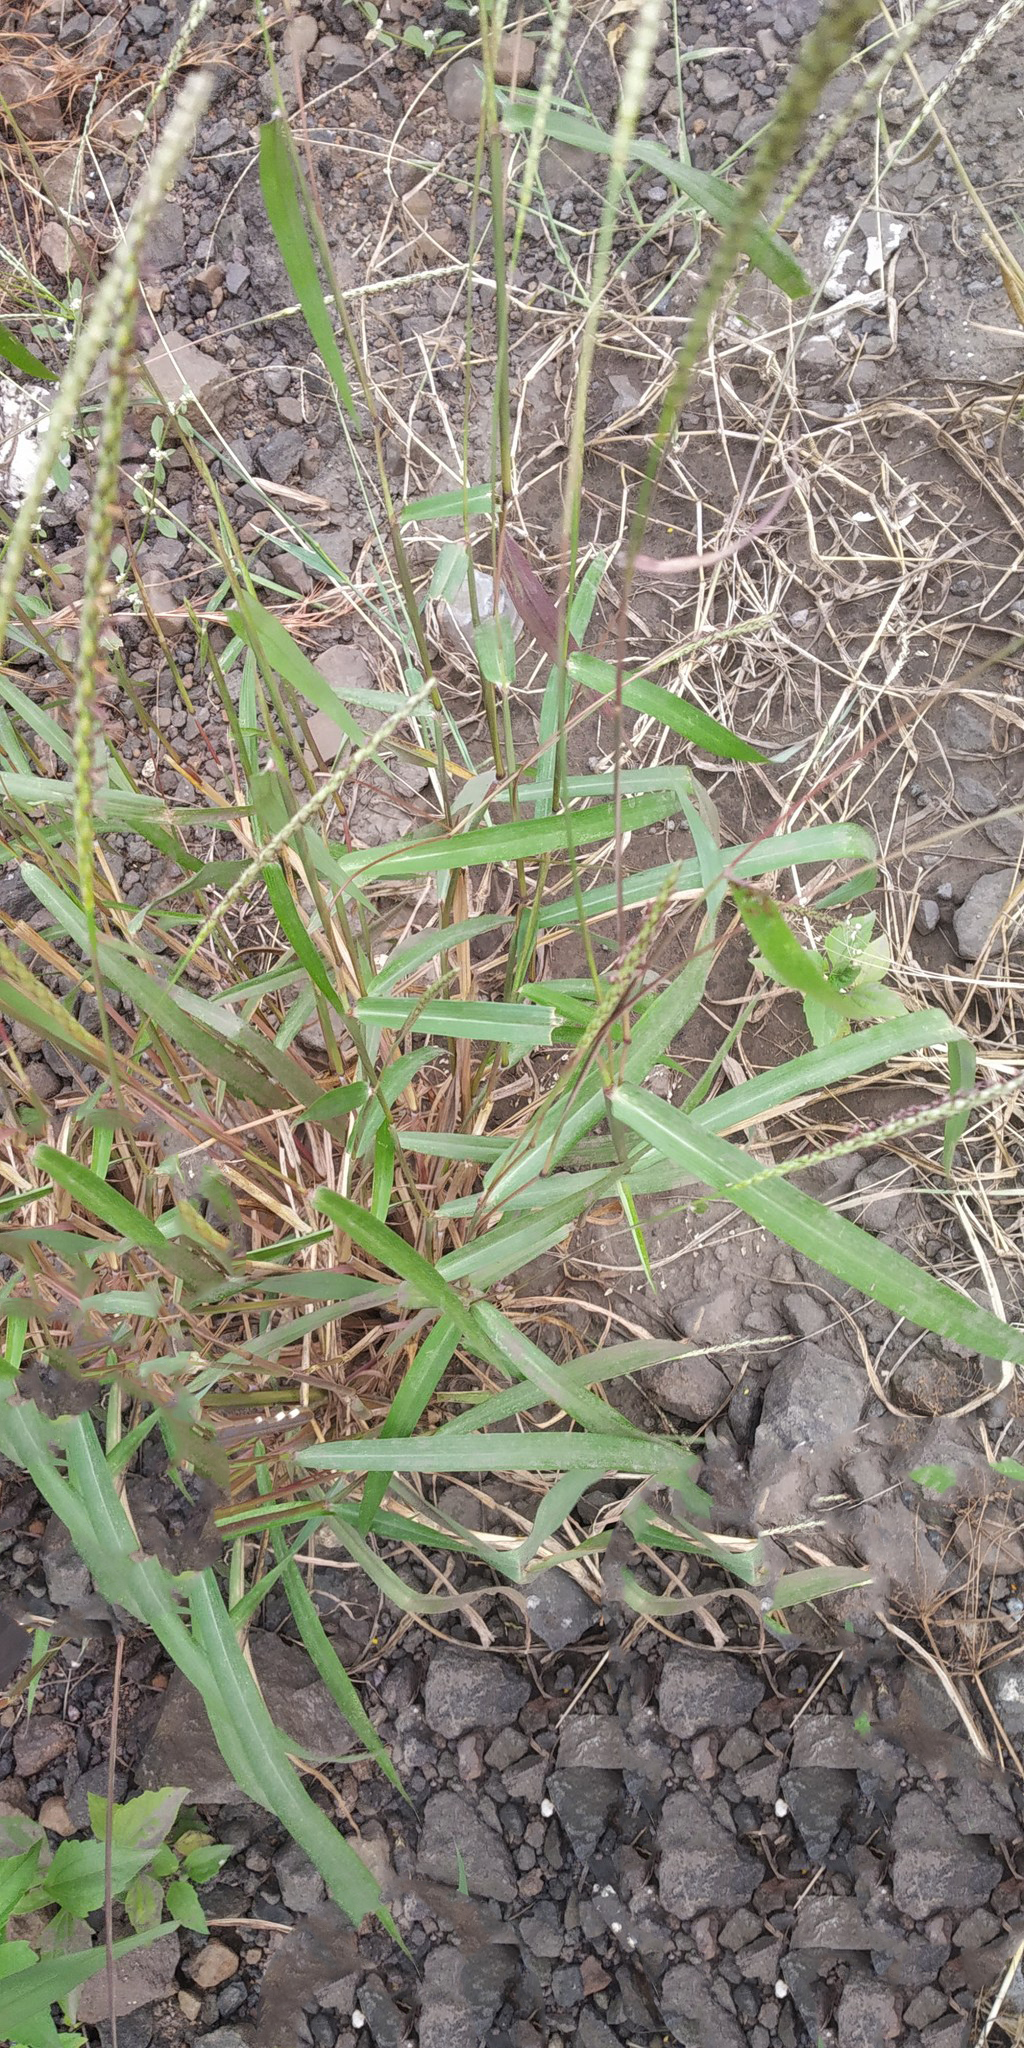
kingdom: Plantae
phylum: Tracheophyta
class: Liliopsida
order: Poales
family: Poaceae
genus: Ischaemum
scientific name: Ischaemum barbatum
